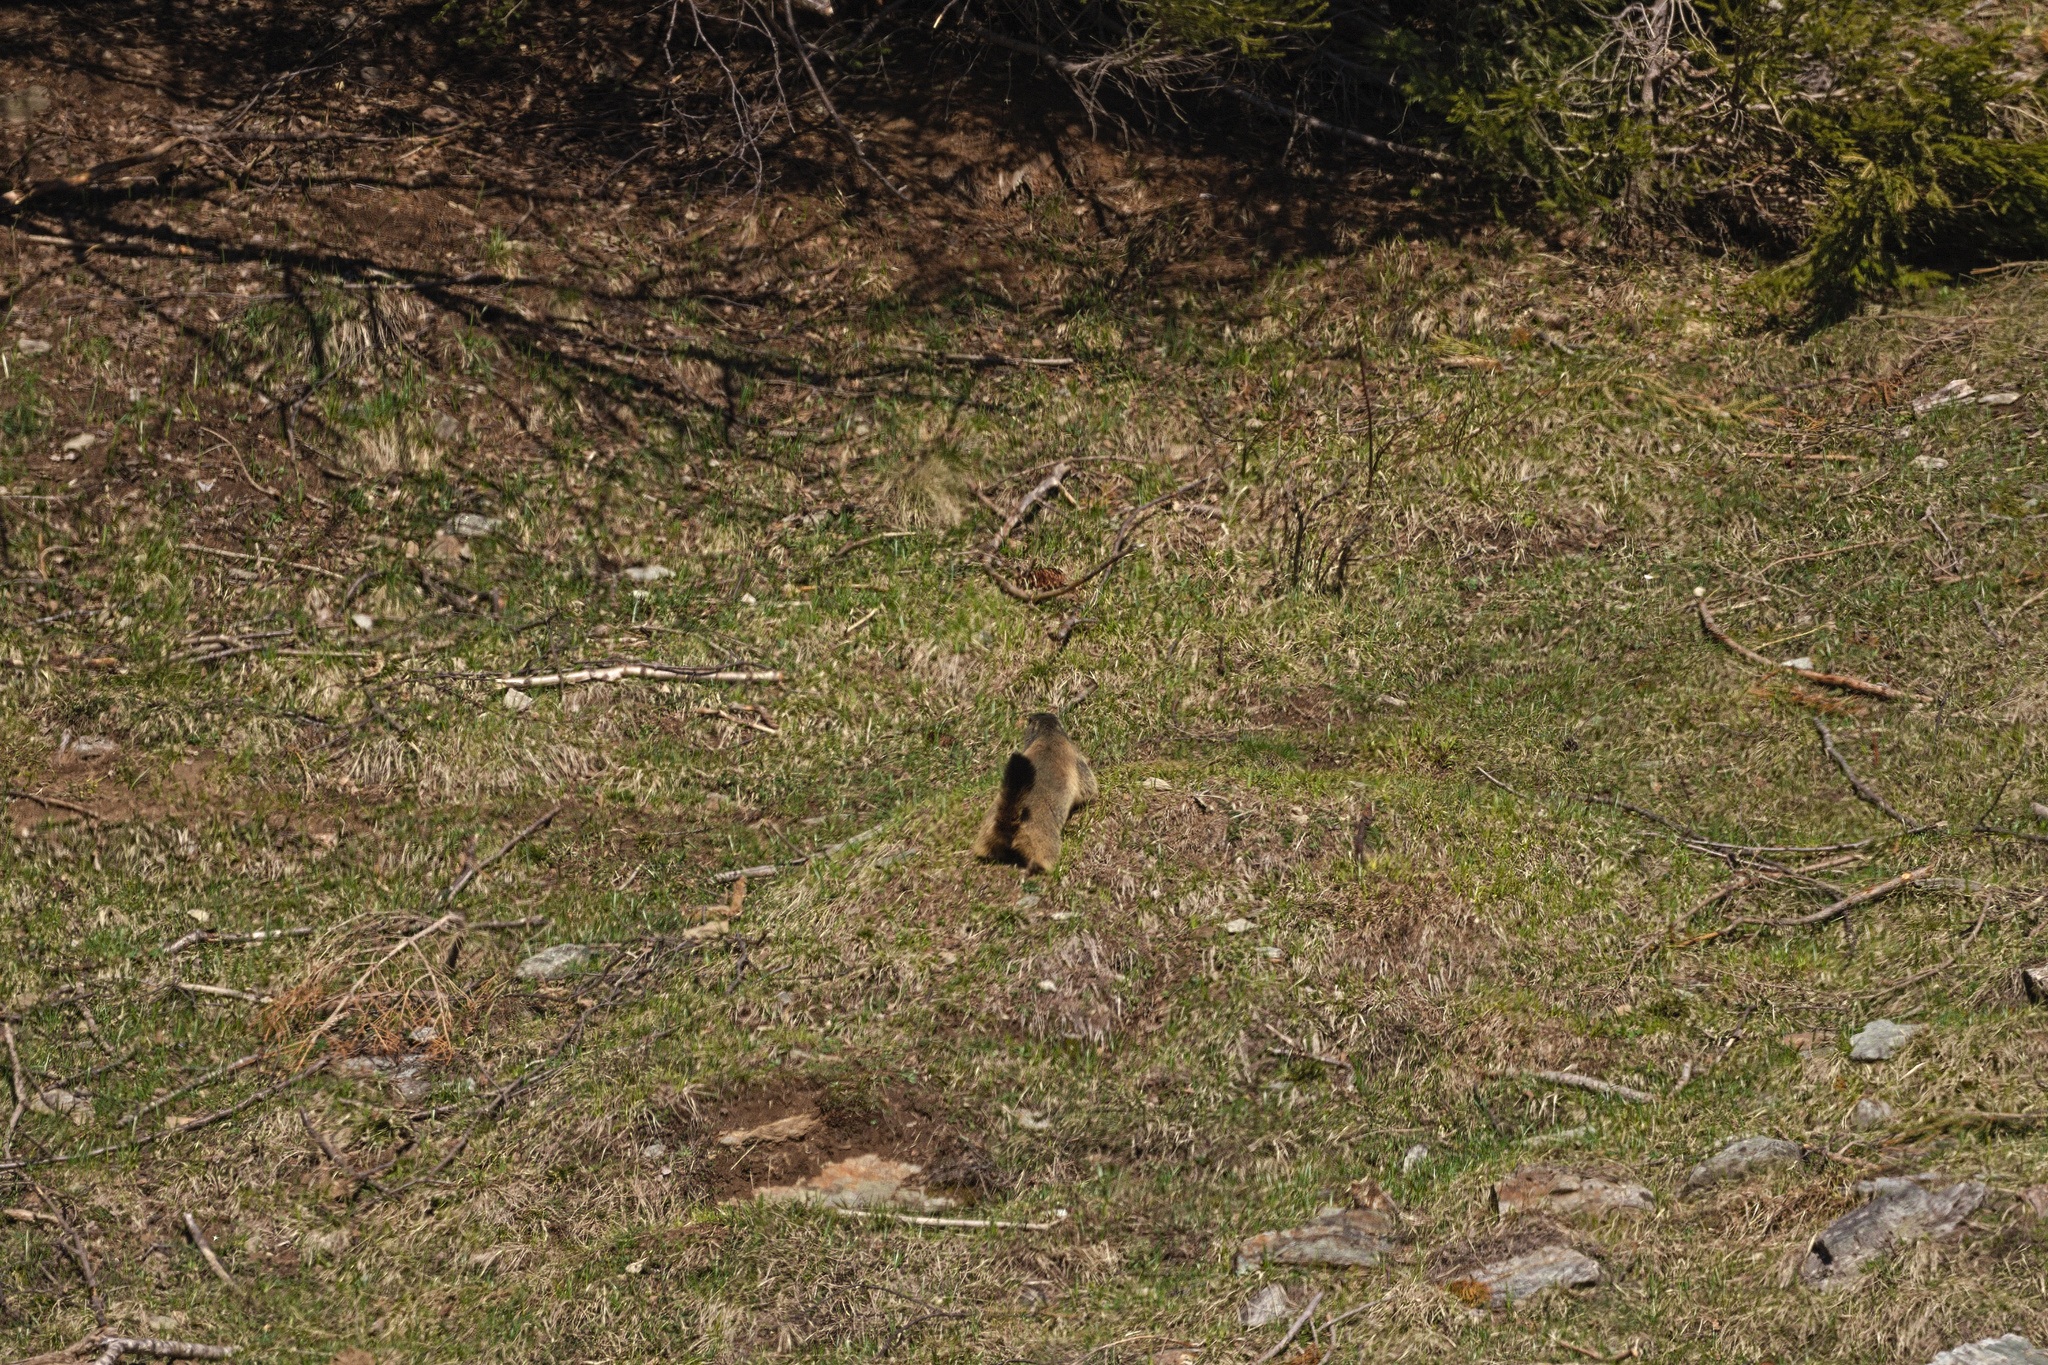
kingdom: Animalia
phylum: Chordata
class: Mammalia
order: Rodentia
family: Sciuridae
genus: Marmota
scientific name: Marmota marmota
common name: Alpine marmot
